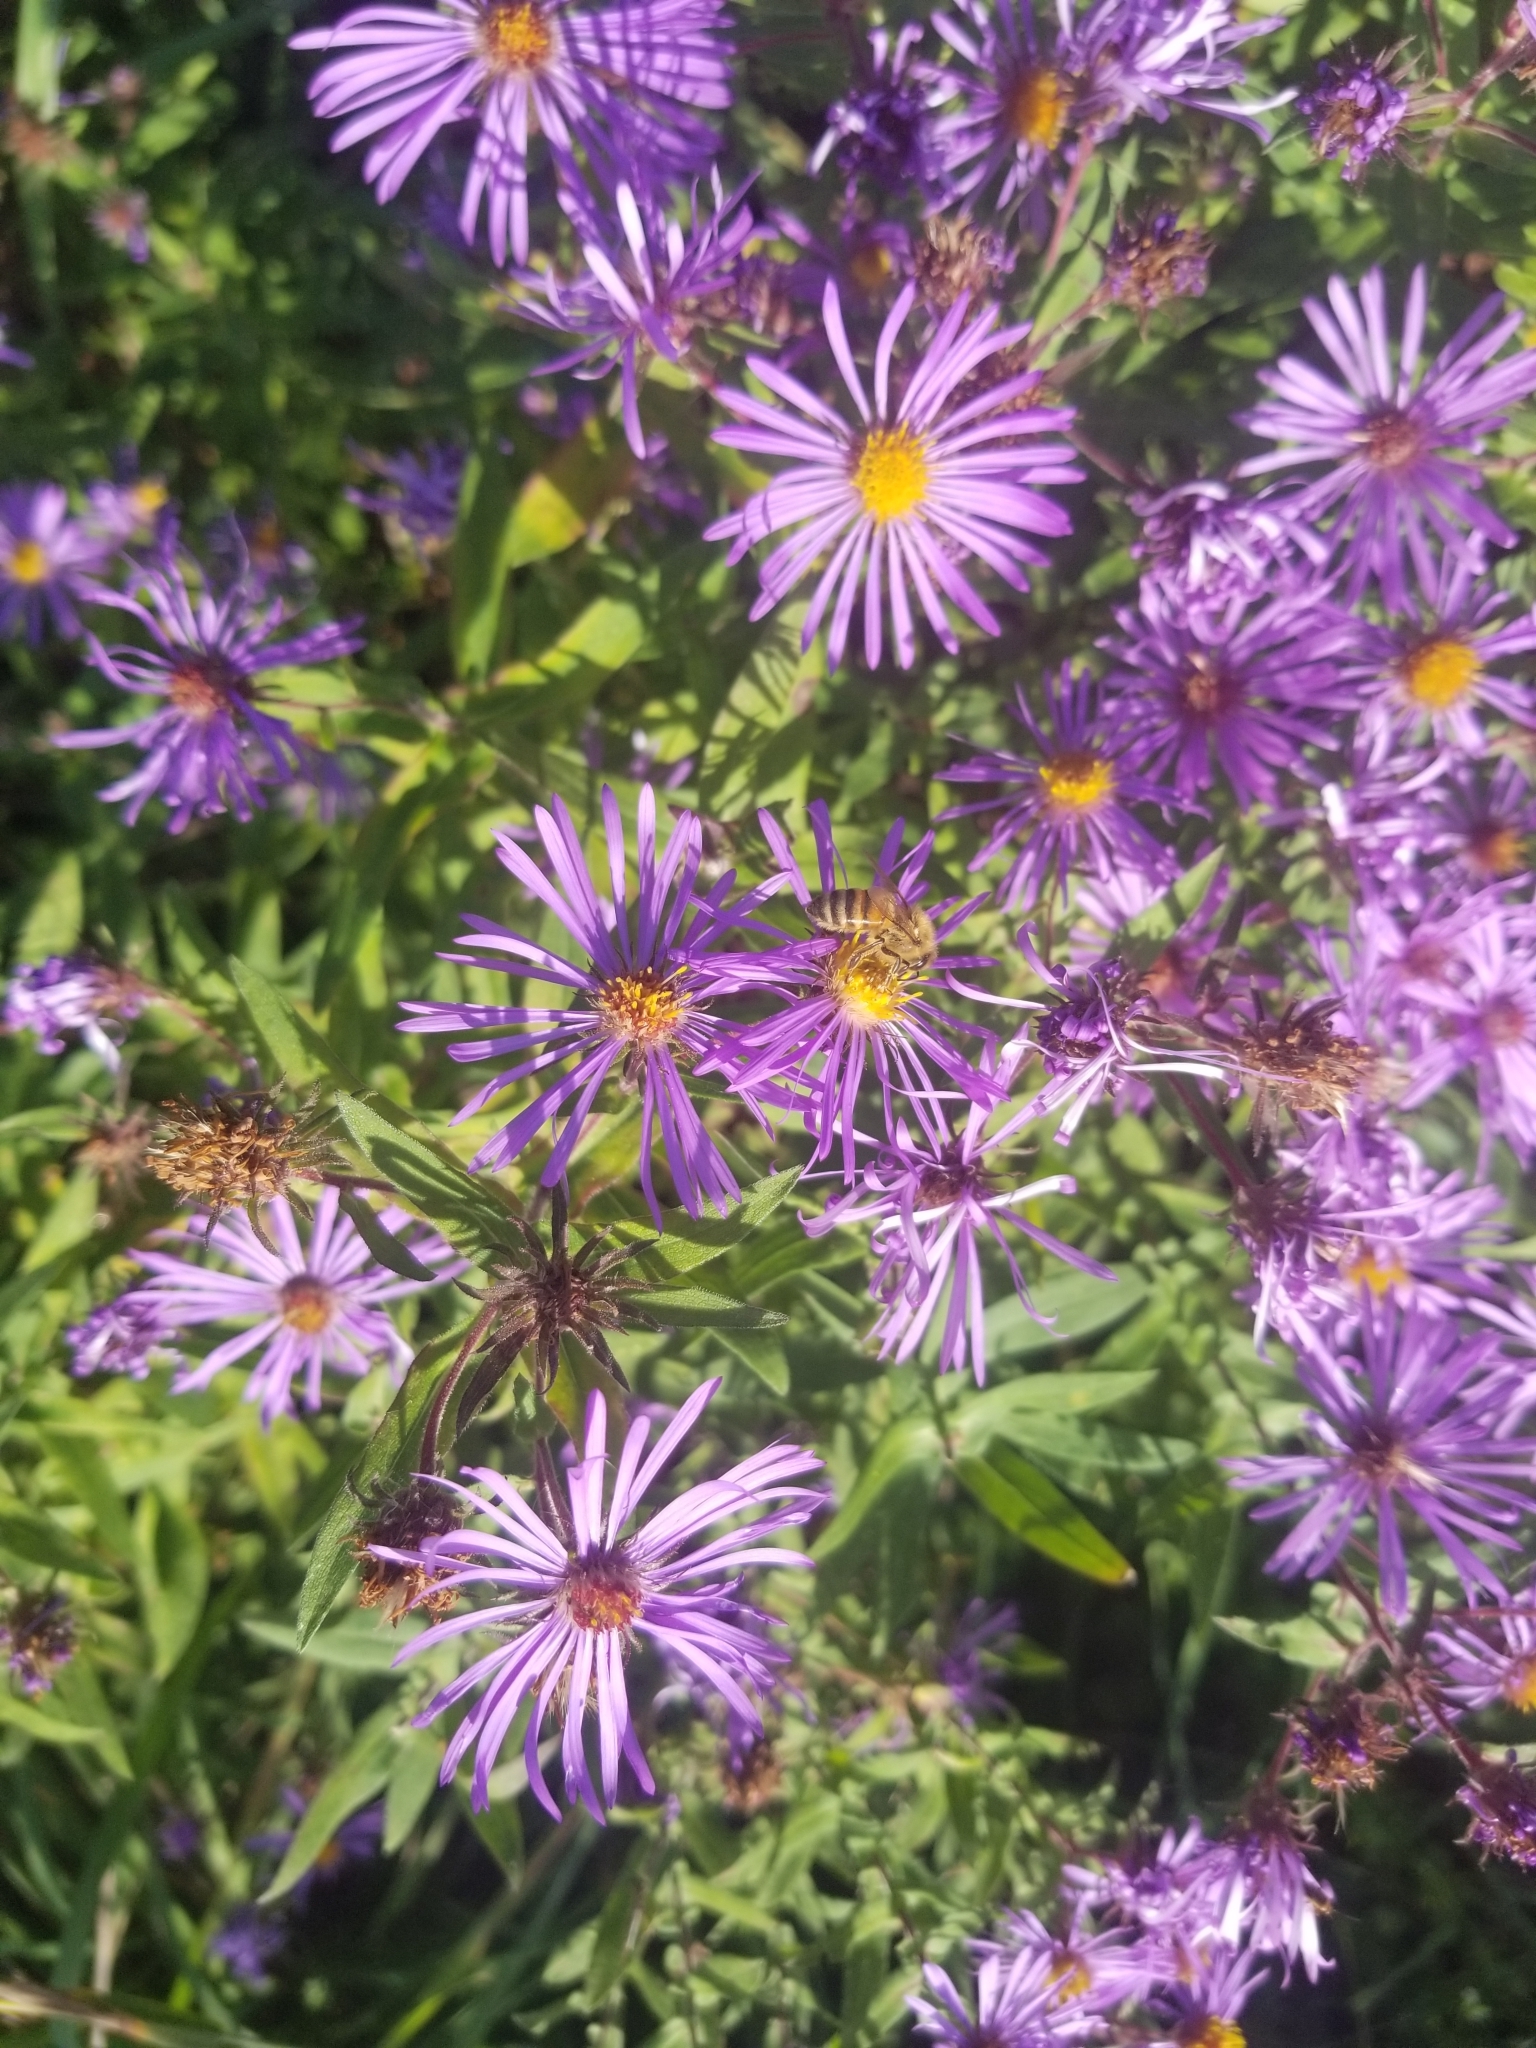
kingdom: Animalia
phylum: Arthropoda
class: Insecta
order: Hymenoptera
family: Apidae
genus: Apis
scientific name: Apis mellifera
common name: Honey bee
